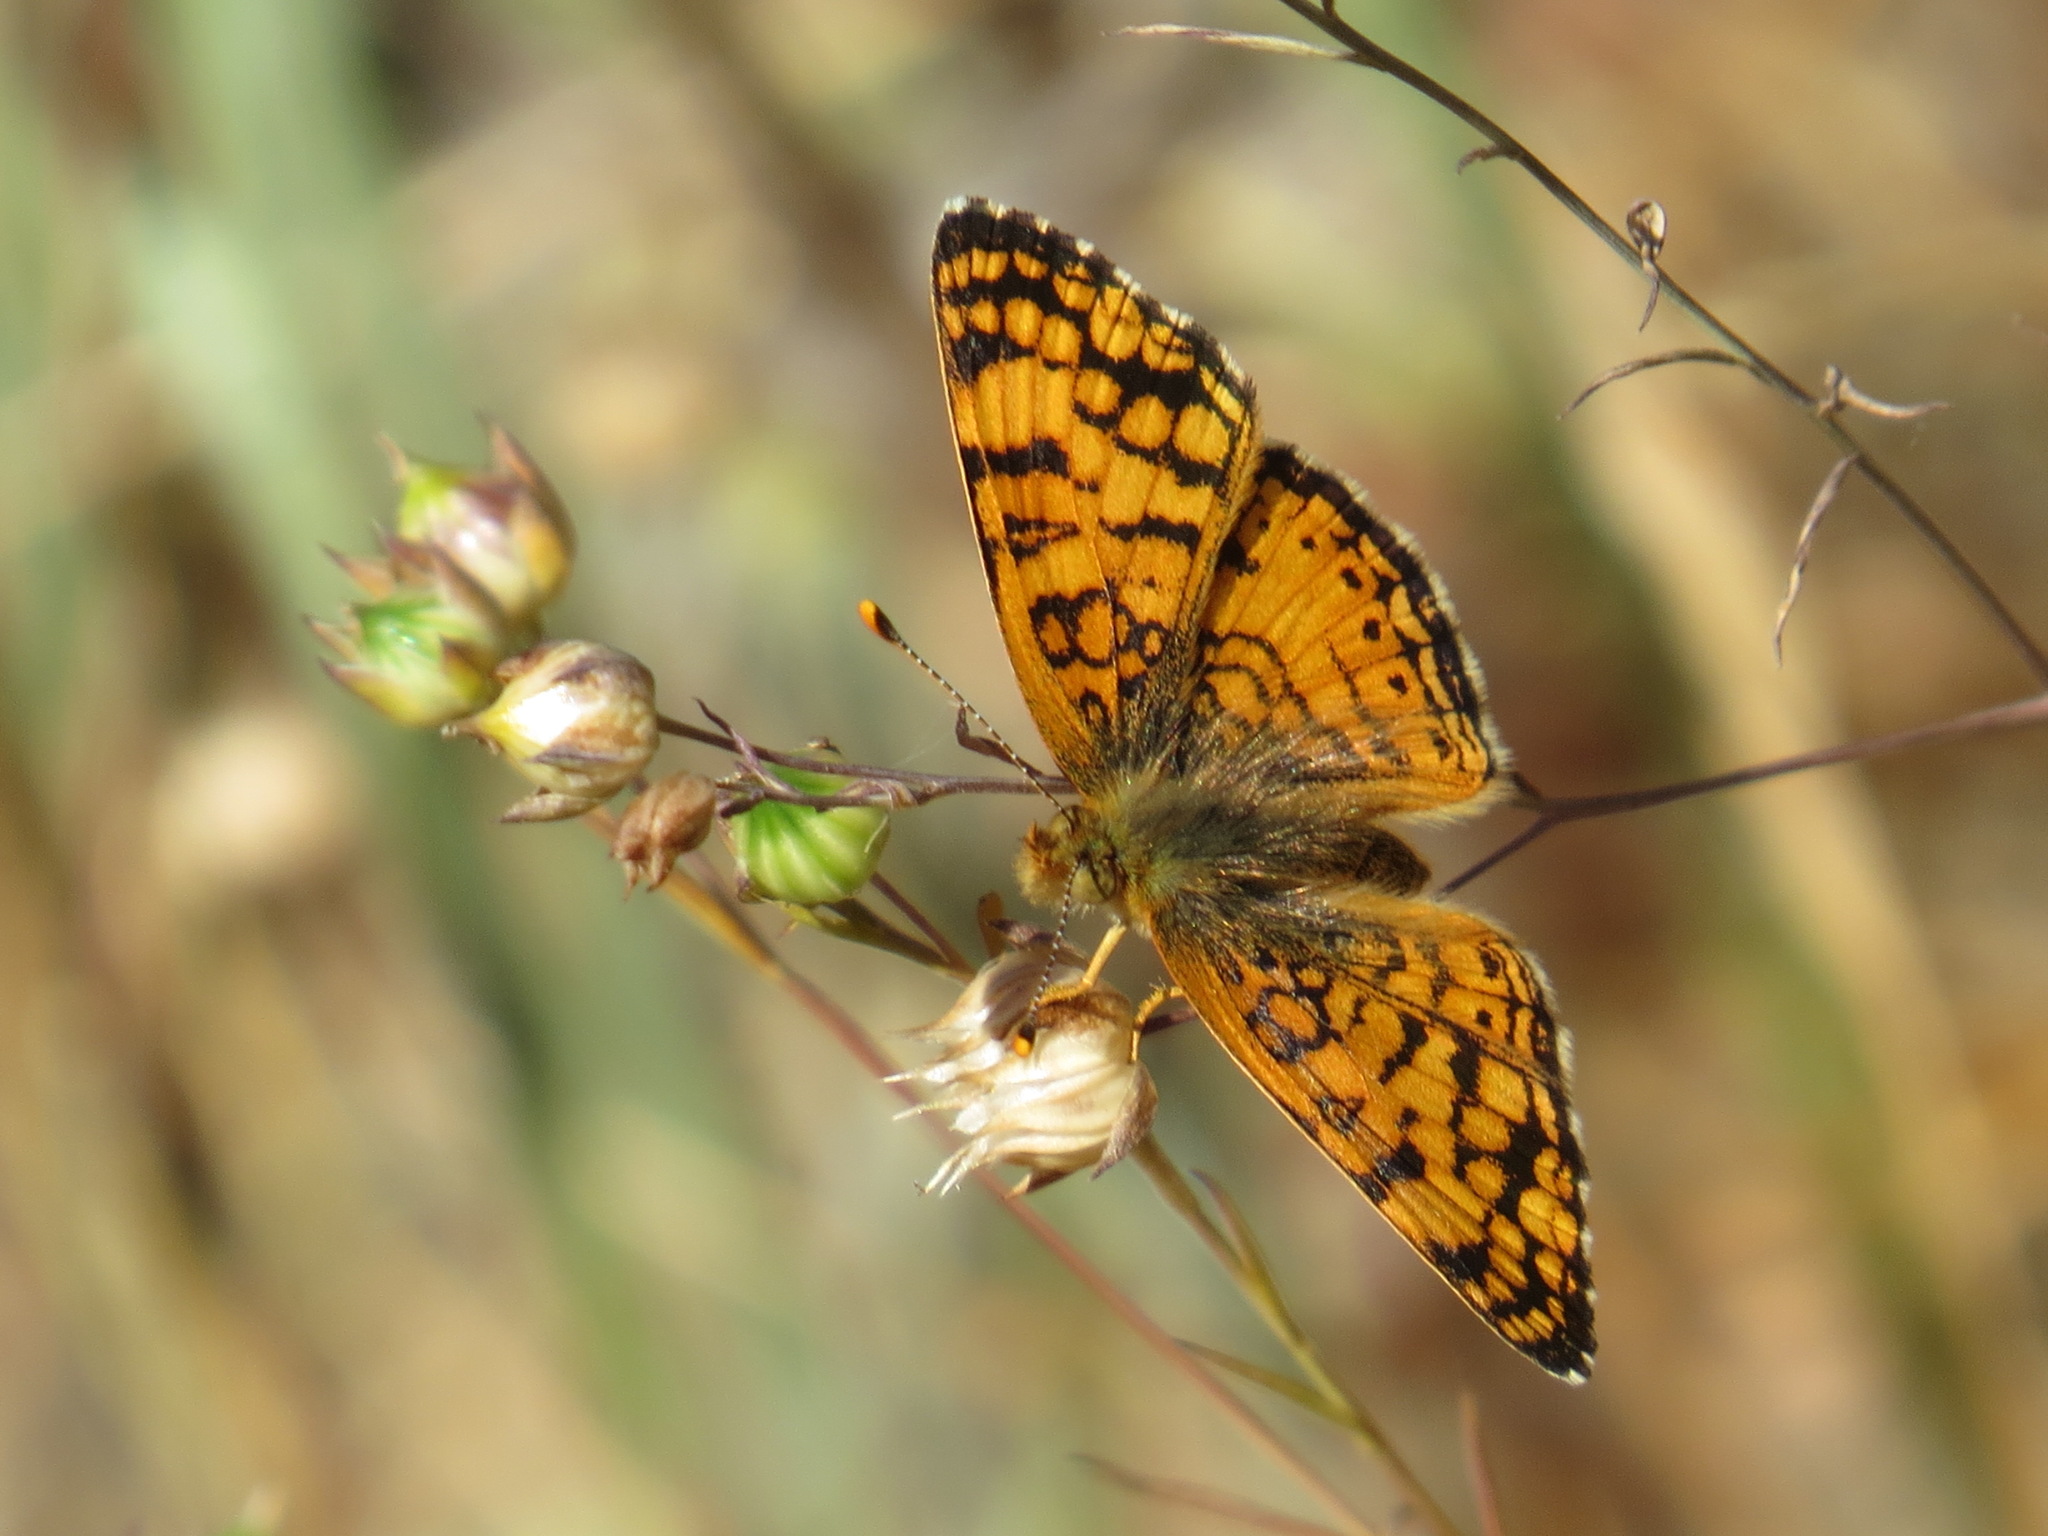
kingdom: Animalia
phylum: Arthropoda
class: Insecta
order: Lepidoptera
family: Nymphalidae
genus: Eresia
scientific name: Eresia aveyrona
